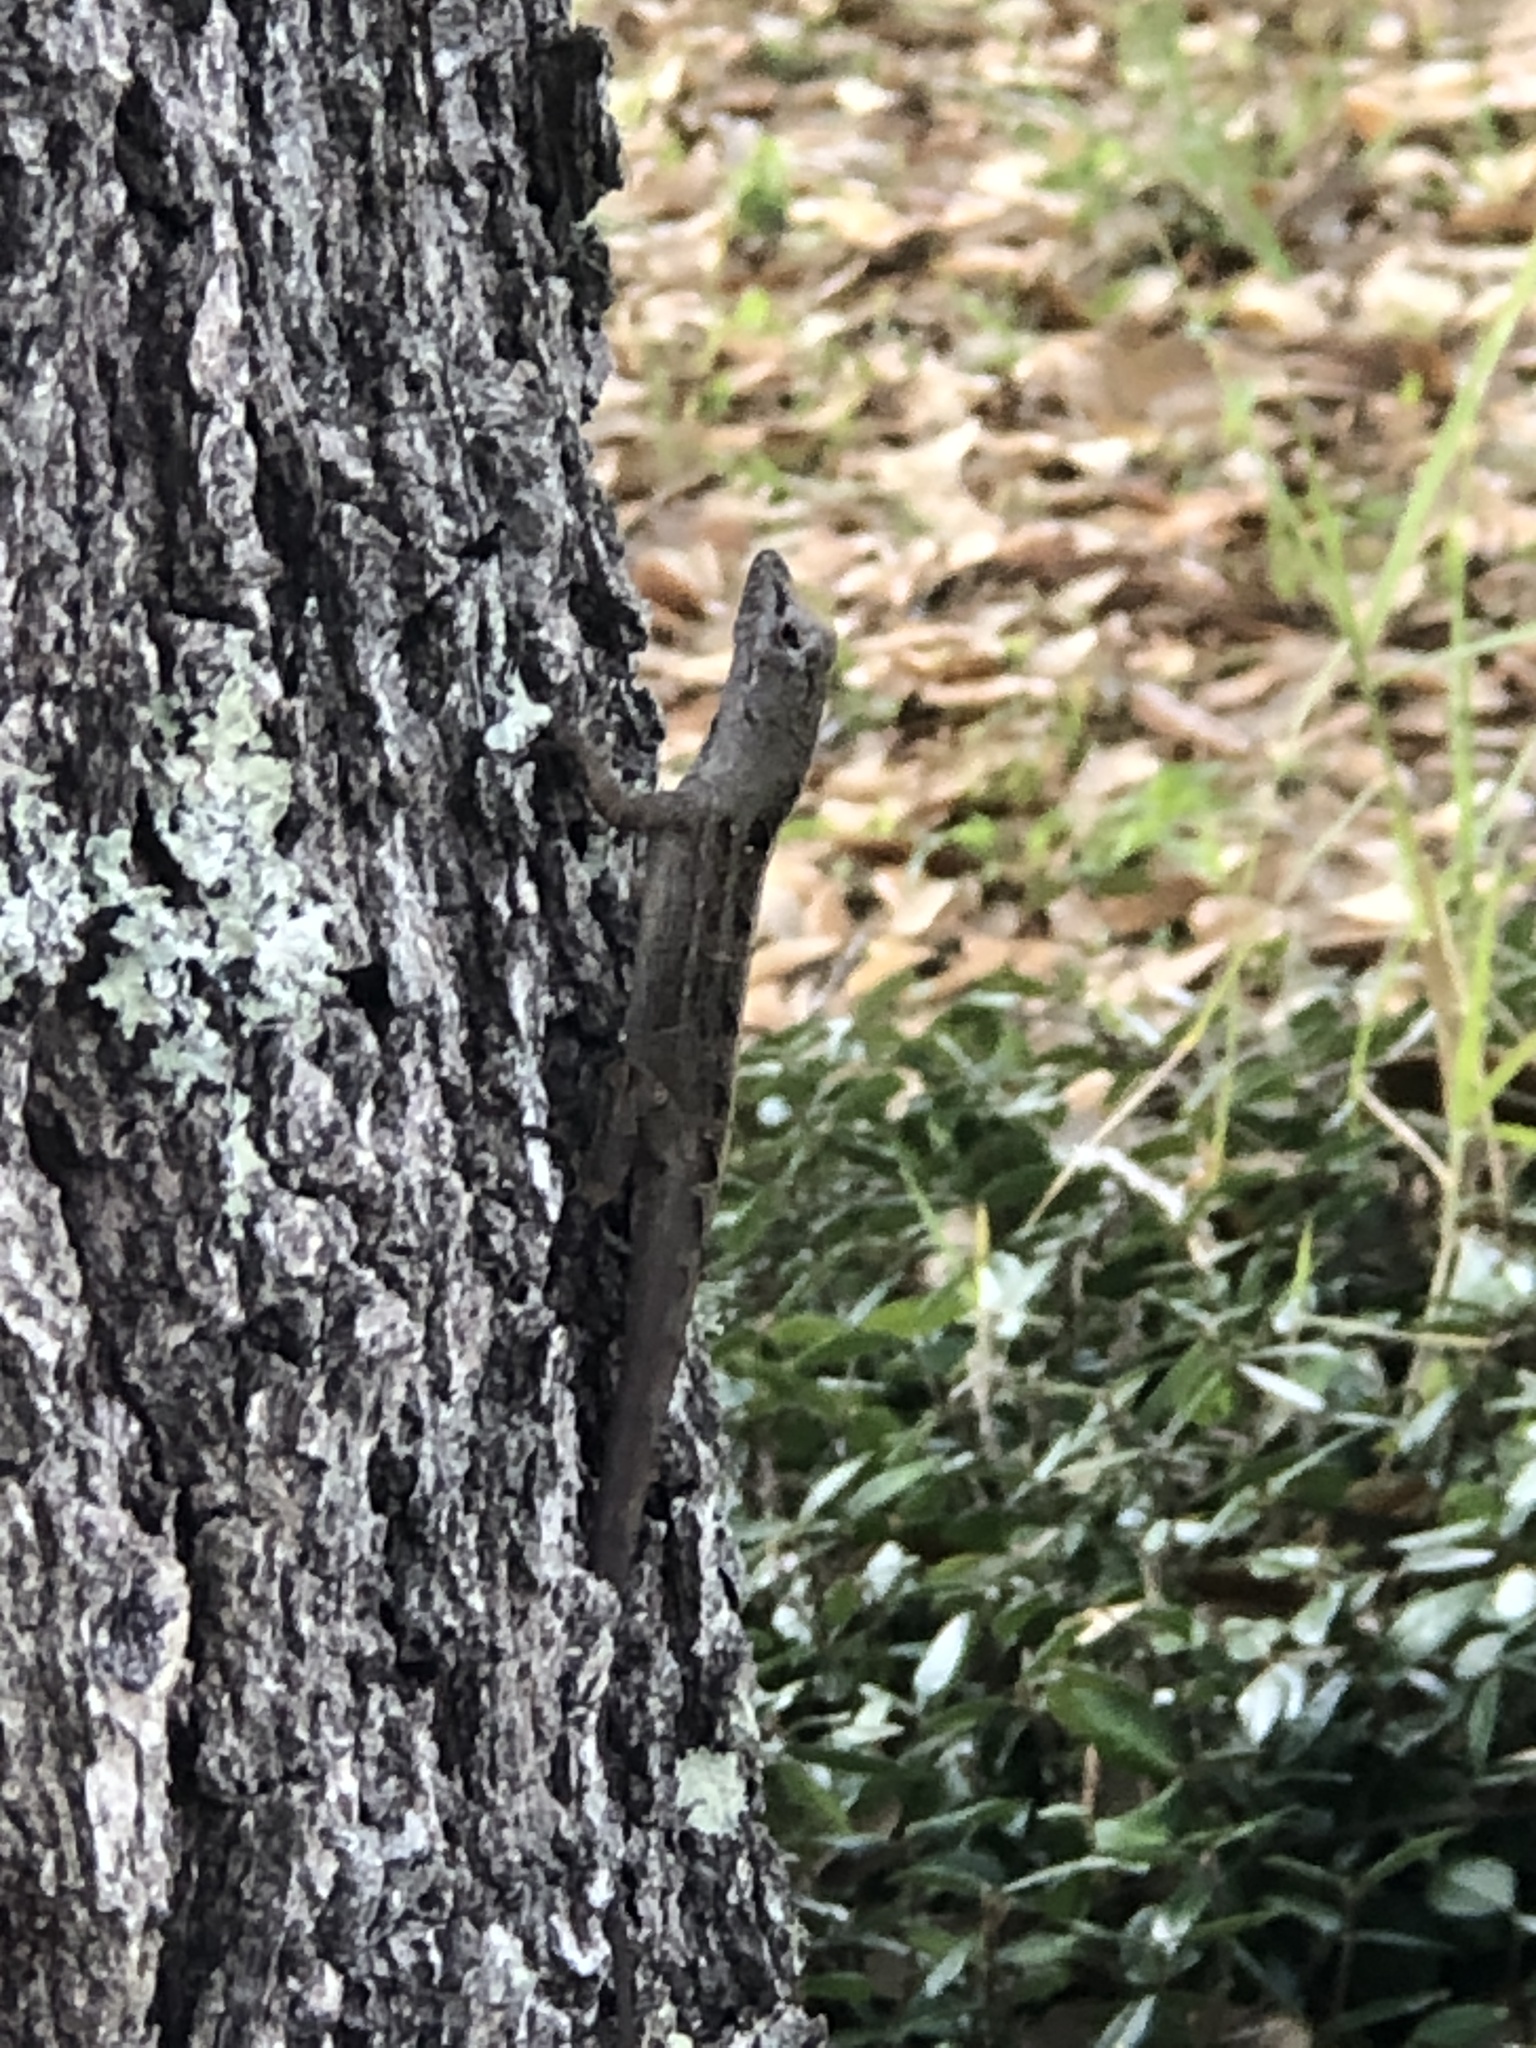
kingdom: Animalia
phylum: Chordata
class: Squamata
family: Dactyloidae
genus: Anolis
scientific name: Anolis sagrei
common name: Brown anole
